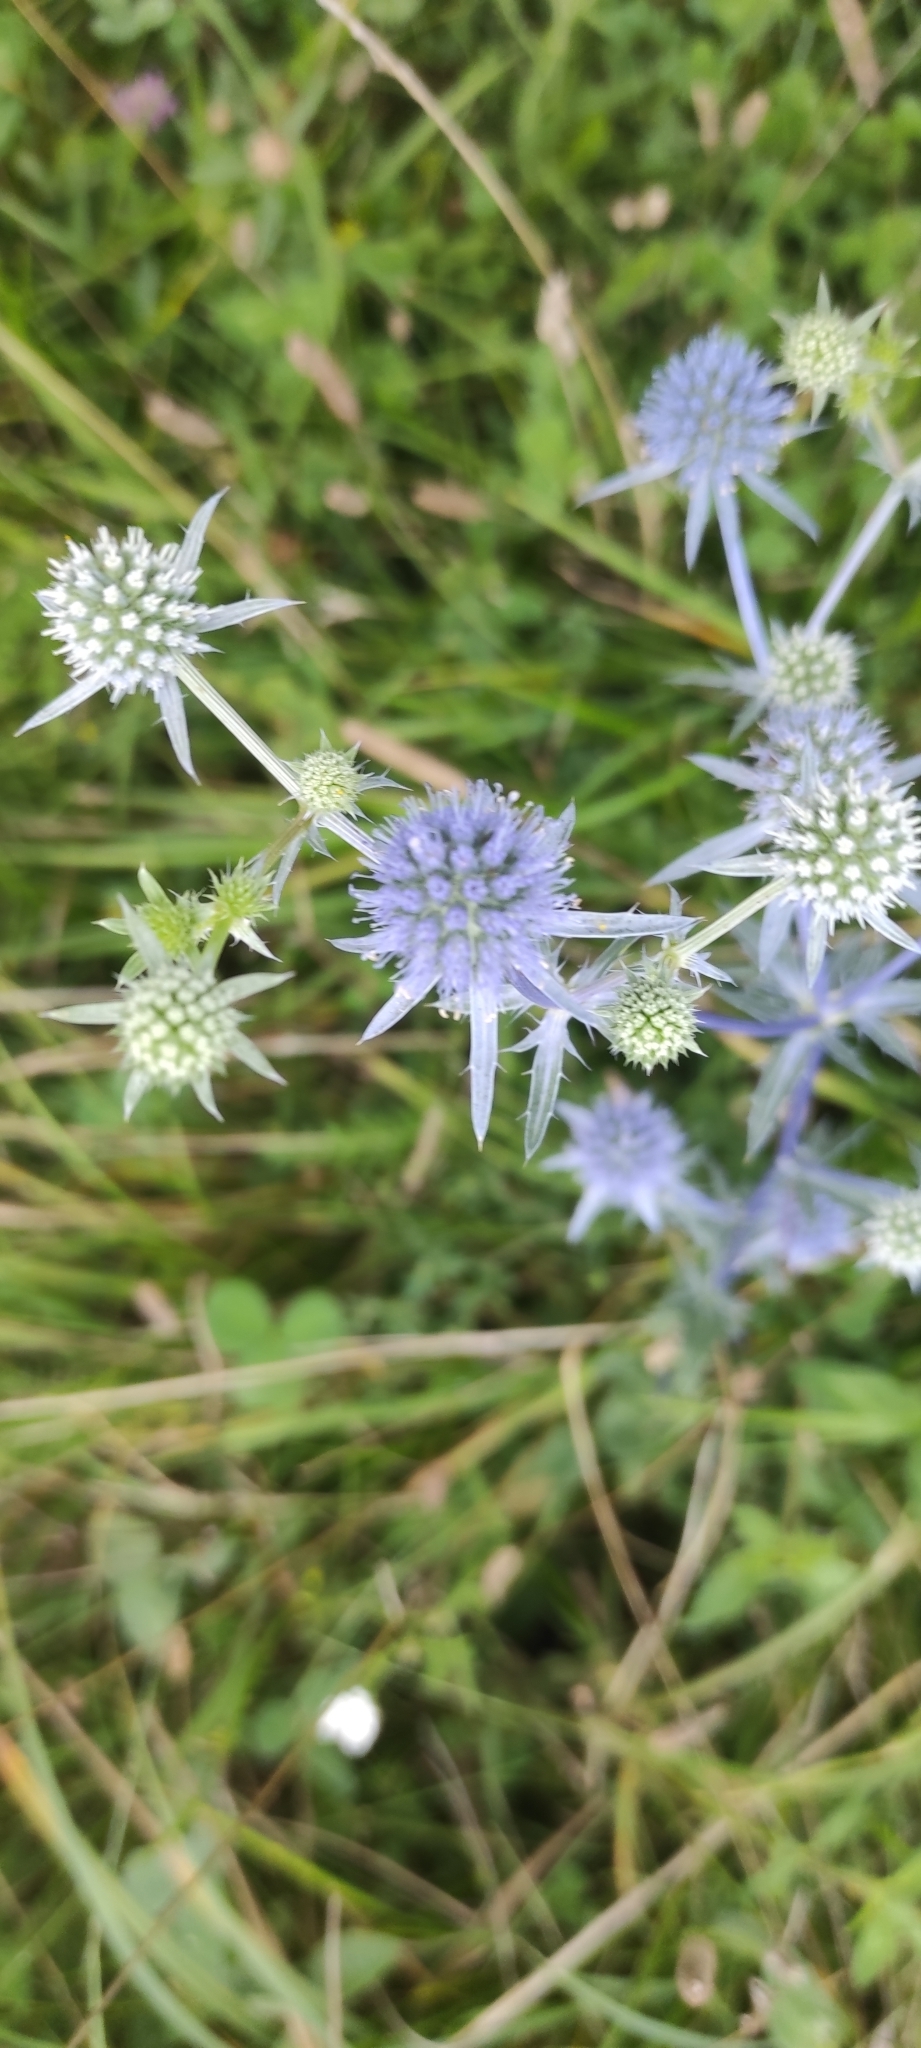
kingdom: Plantae
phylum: Tracheophyta
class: Magnoliopsida
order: Apiales
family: Apiaceae
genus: Eryngium
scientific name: Eryngium planum
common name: Blue eryngo
